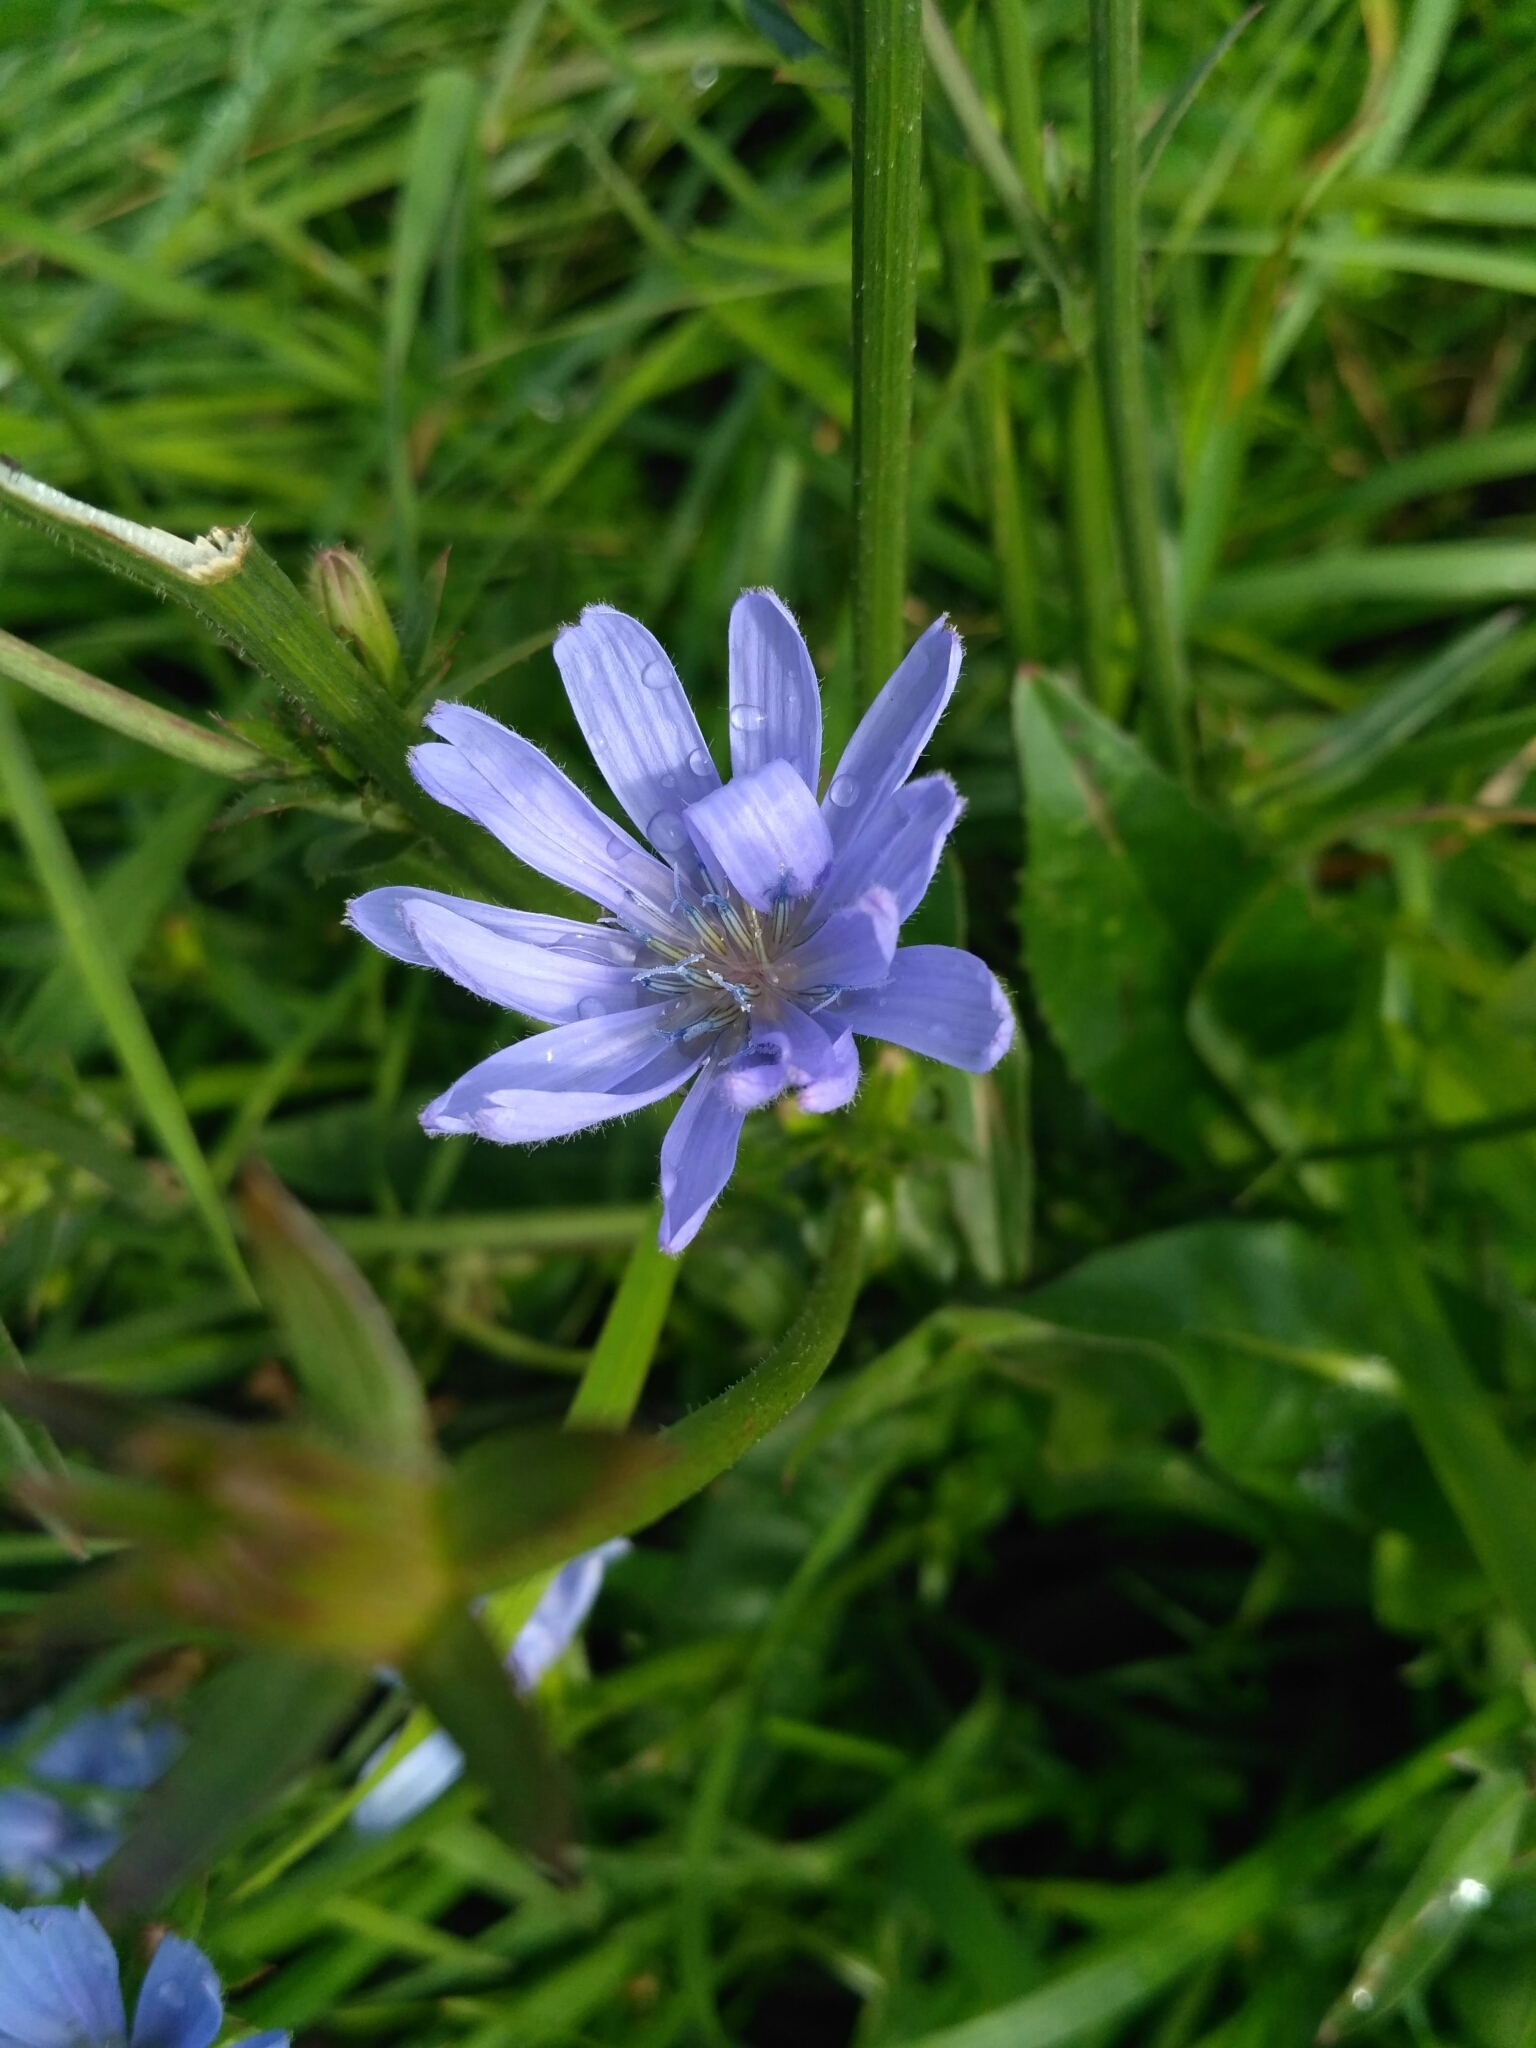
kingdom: Plantae
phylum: Tracheophyta
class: Magnoliopsida
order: Asterales
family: Asteraceae
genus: Cichorium
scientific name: Cichorium intybus
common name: Chicory
